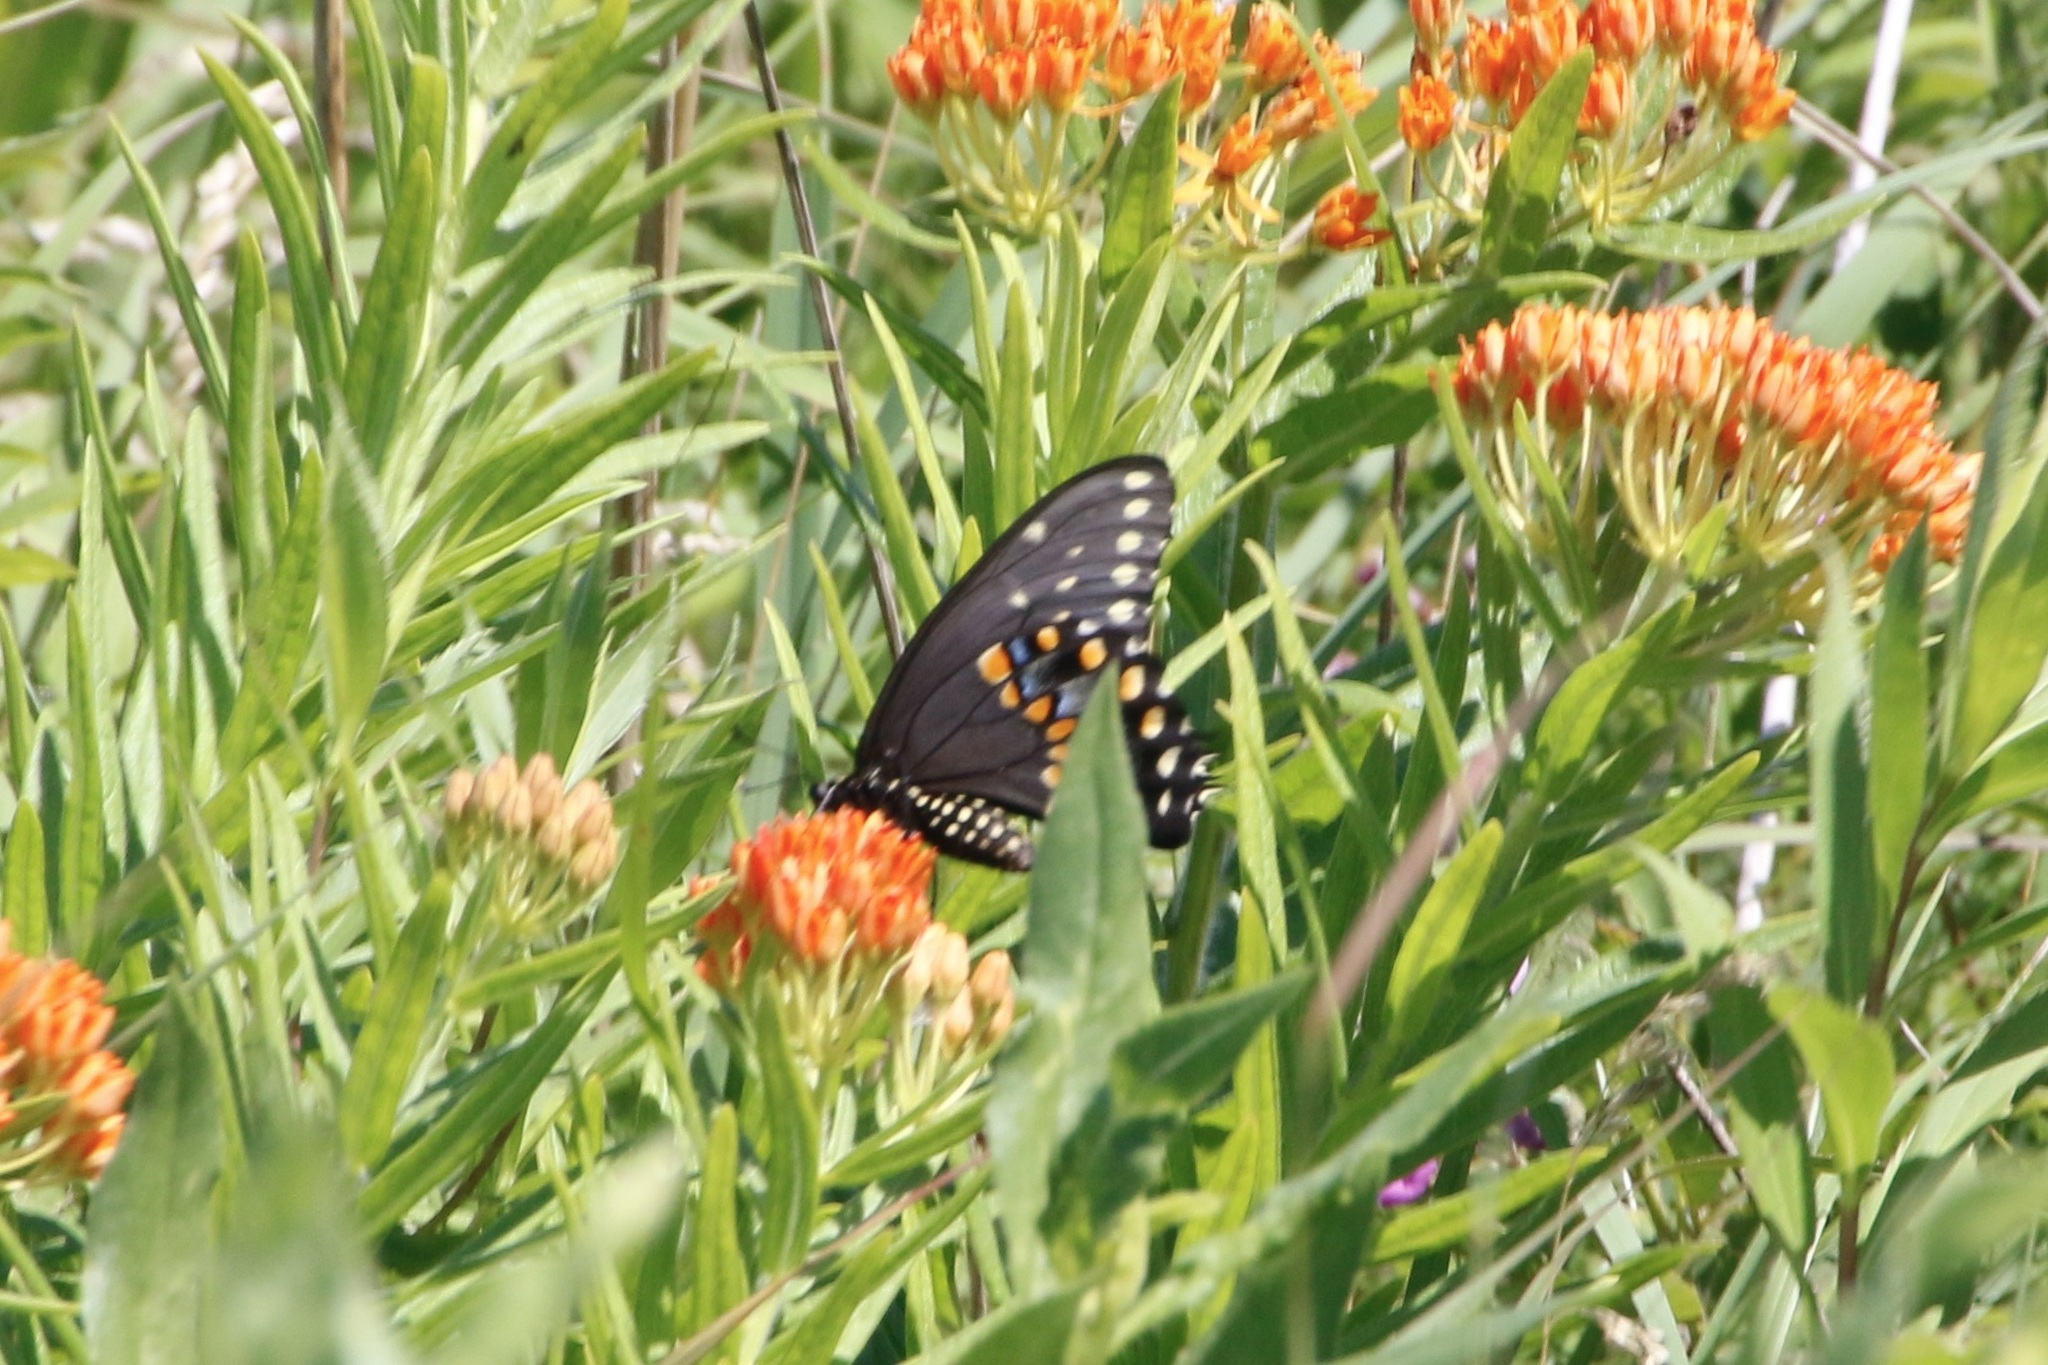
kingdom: Animalia
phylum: Arthropoda
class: Insecta
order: Lepidoptera
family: Papilionidae
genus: Papilio
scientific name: Papilio polyxenes
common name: Black swallowtail
